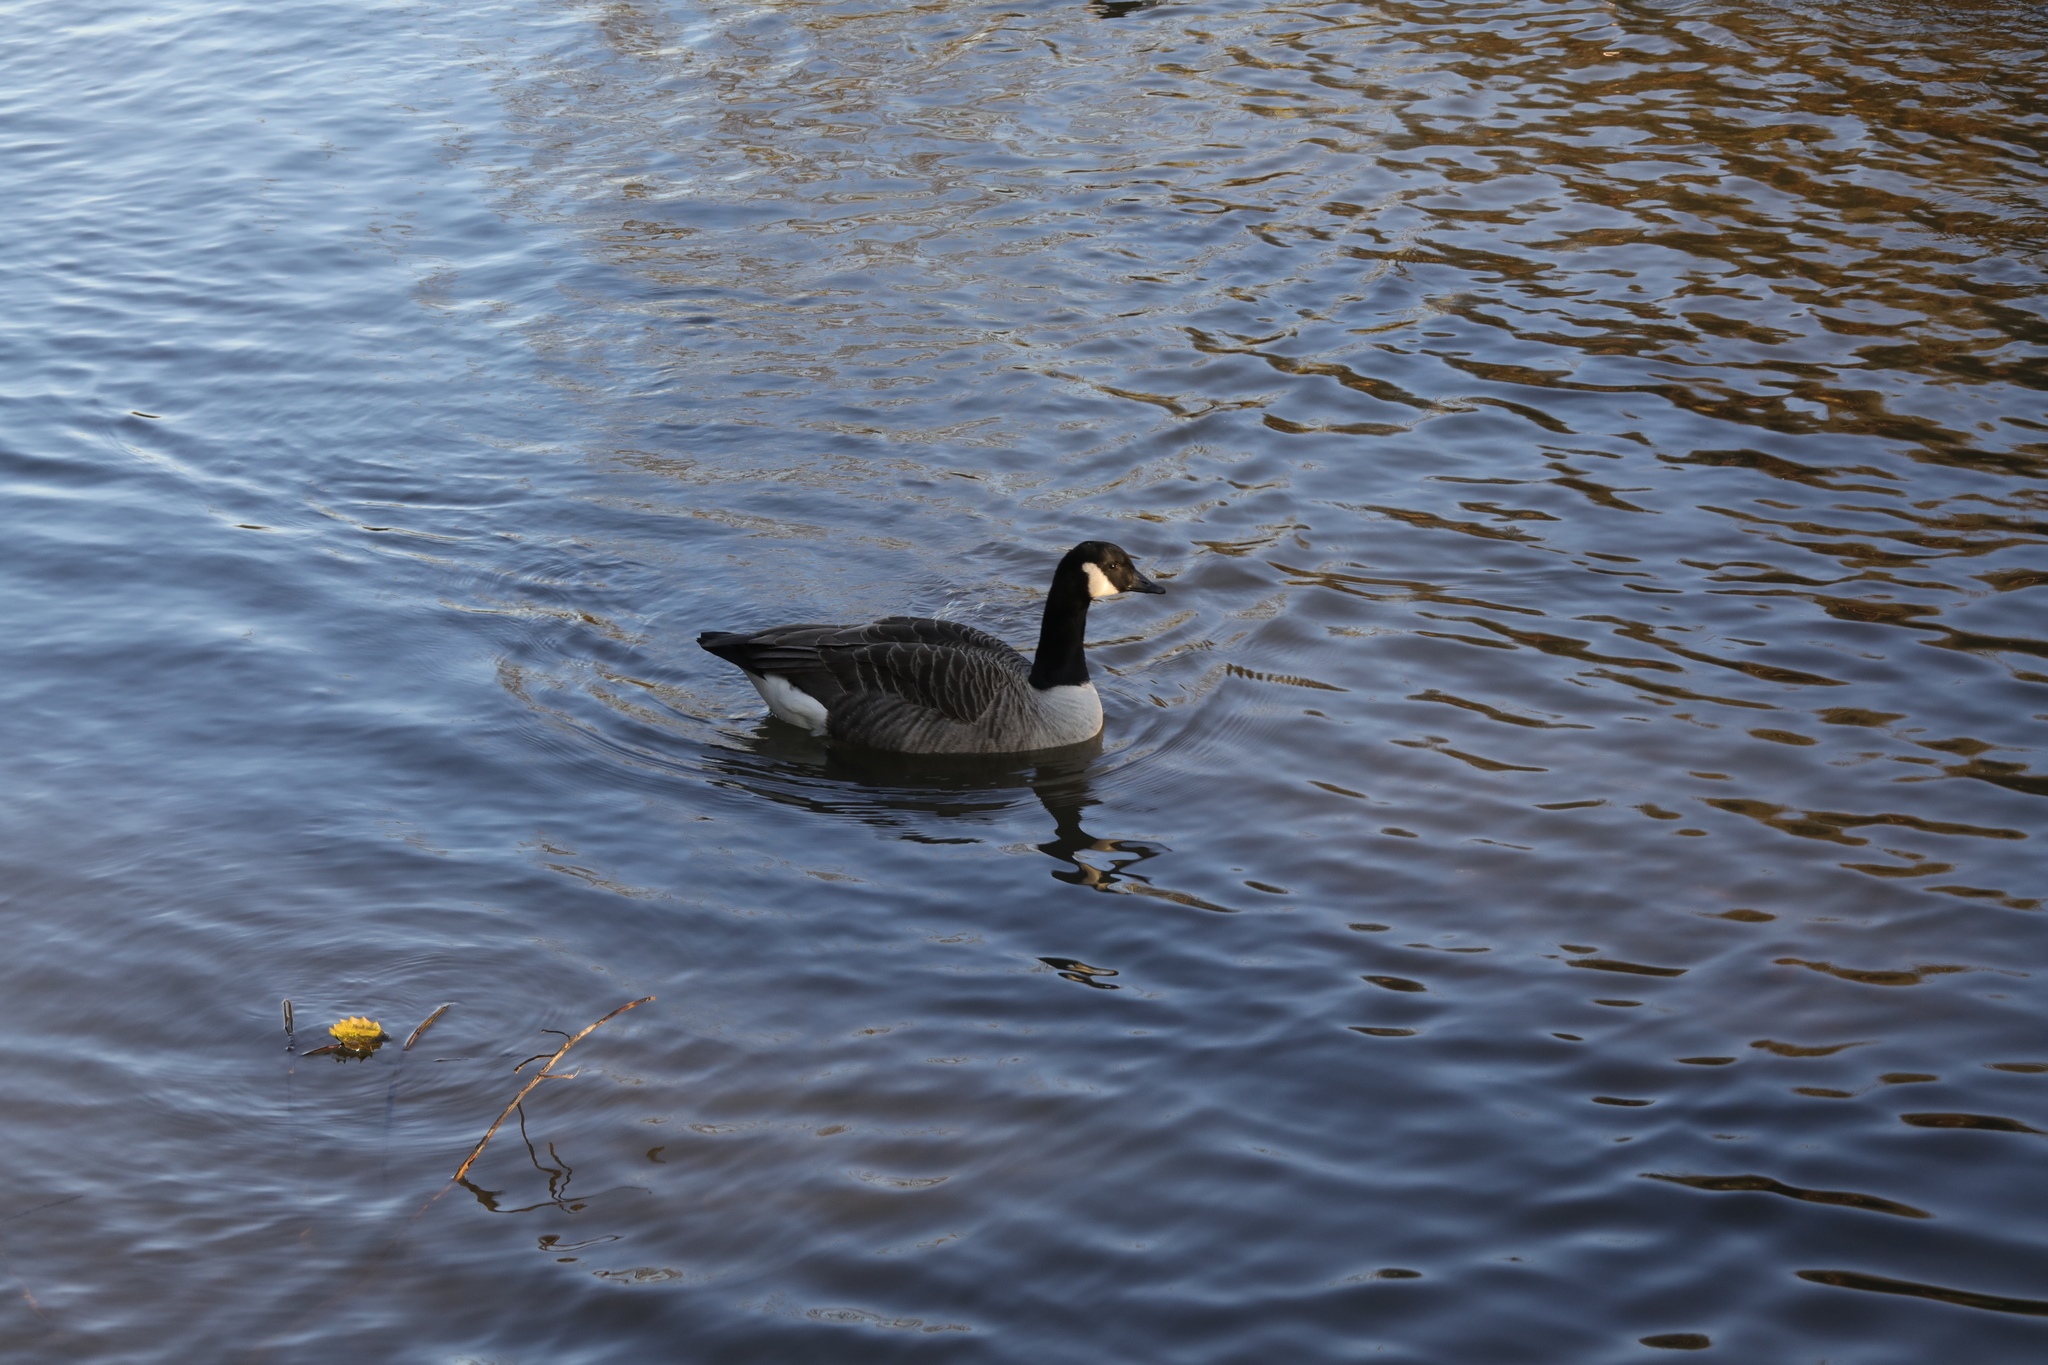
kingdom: Animalia
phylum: Chordata
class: Aves
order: Anseriformes
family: Anatidae
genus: Branta
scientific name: Branta canadensis
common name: Canada goose
